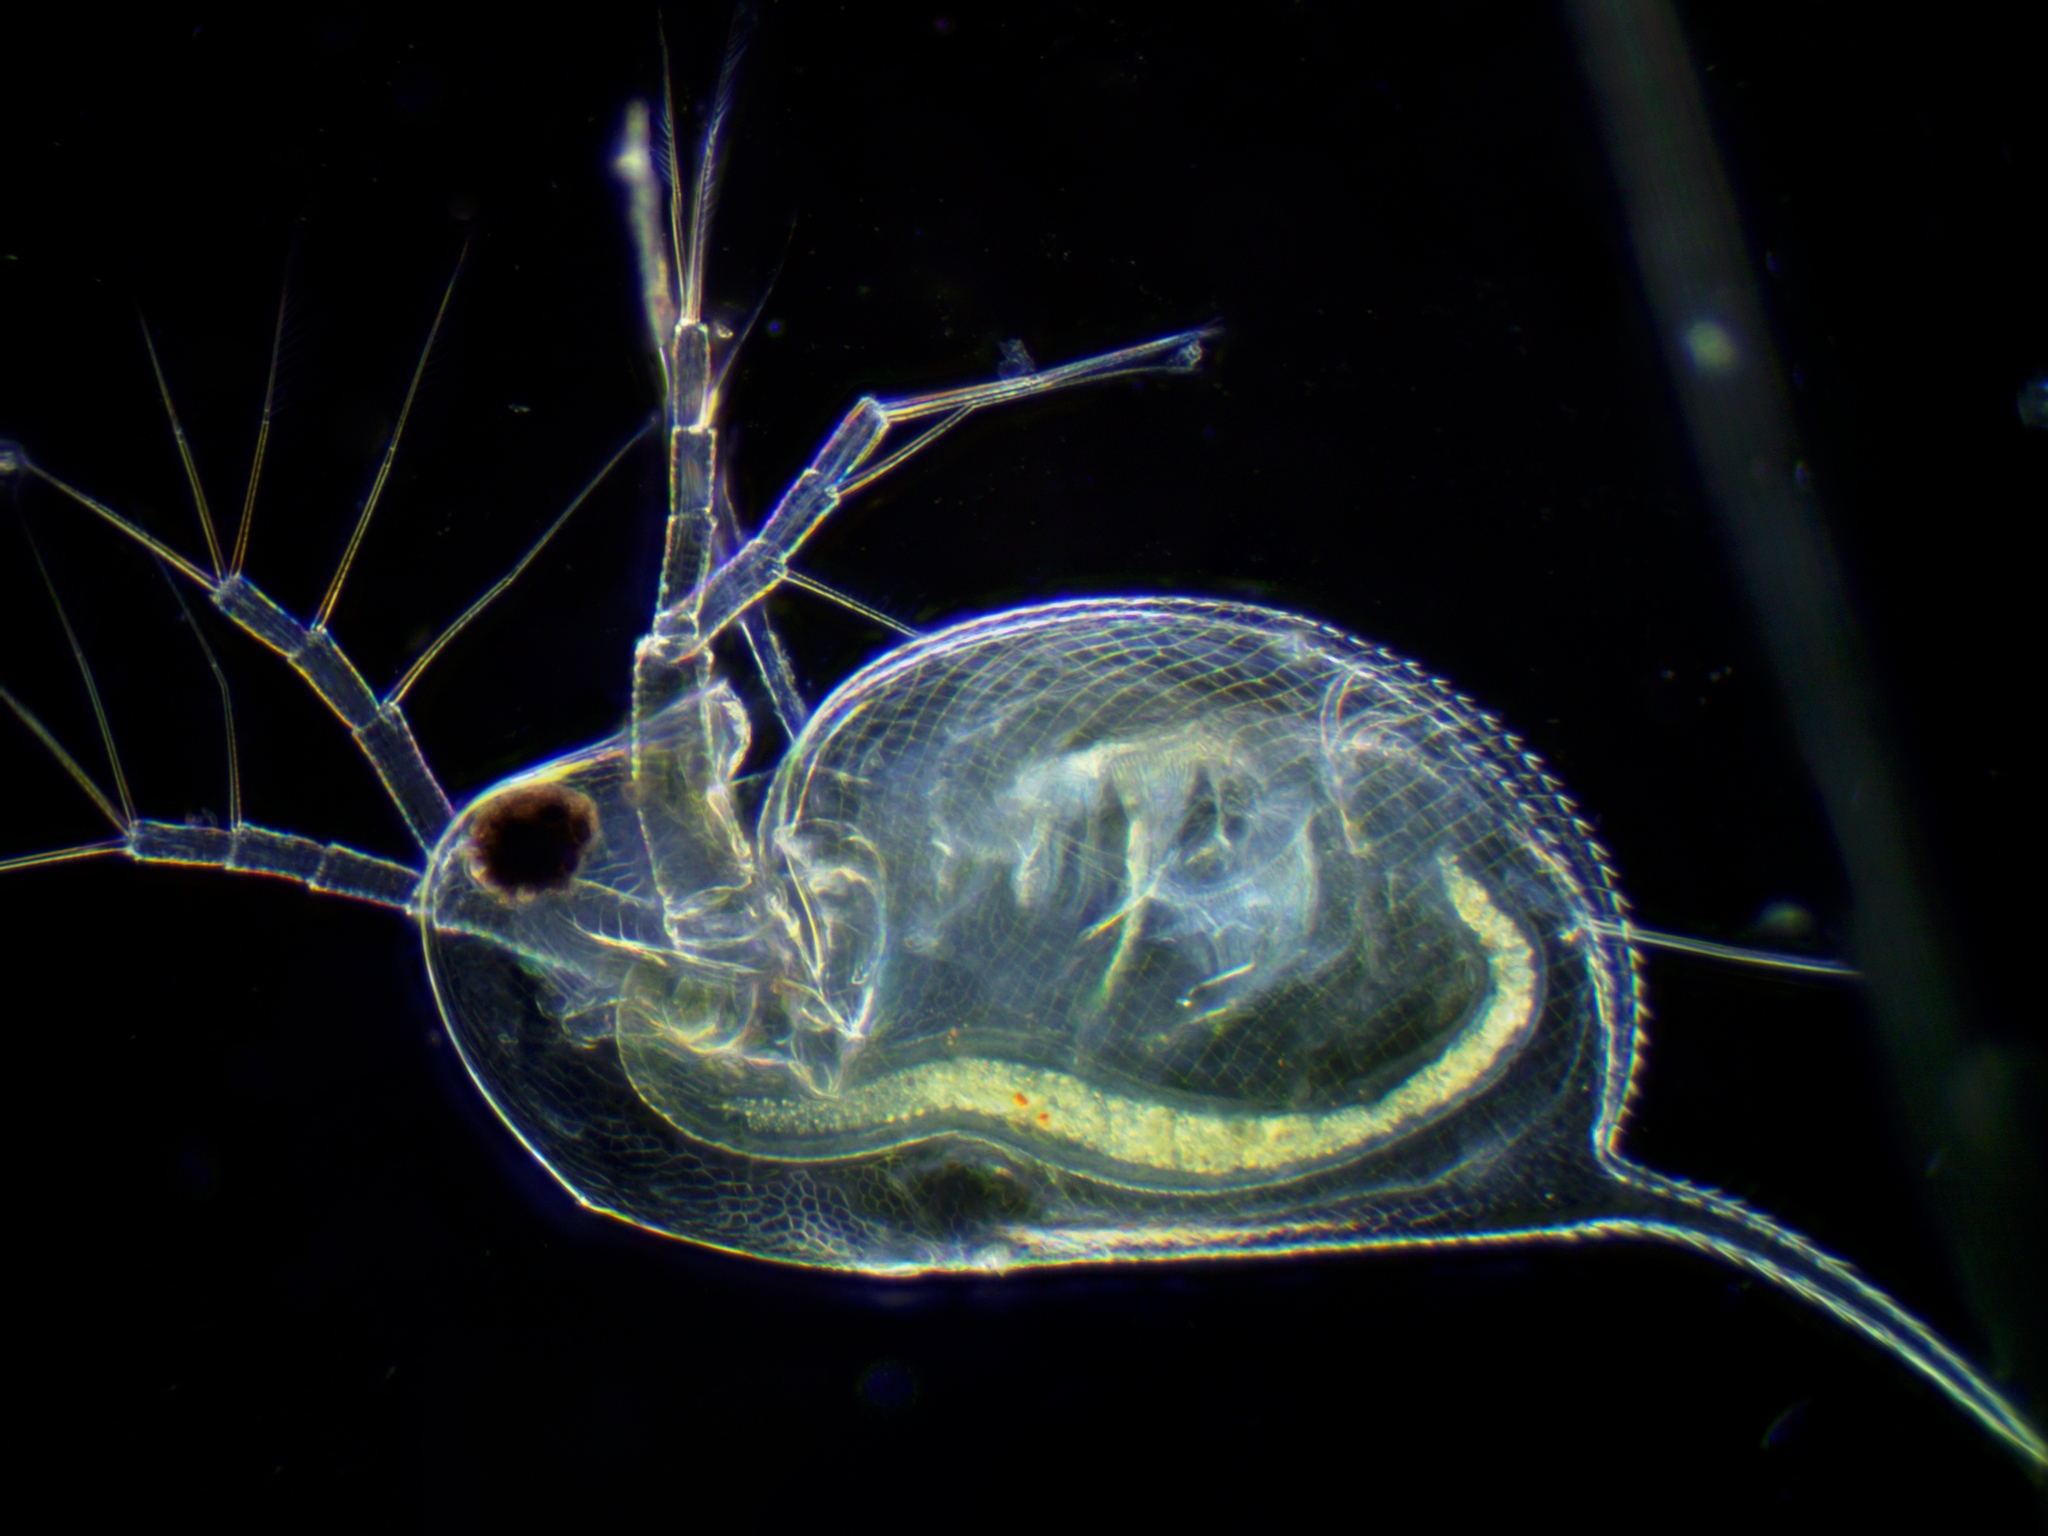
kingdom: Animalia
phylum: Arthropoda
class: Branchiopoda
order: Diplostraca
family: Daphniidae
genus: Daphnia
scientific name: Daphnia longispina
